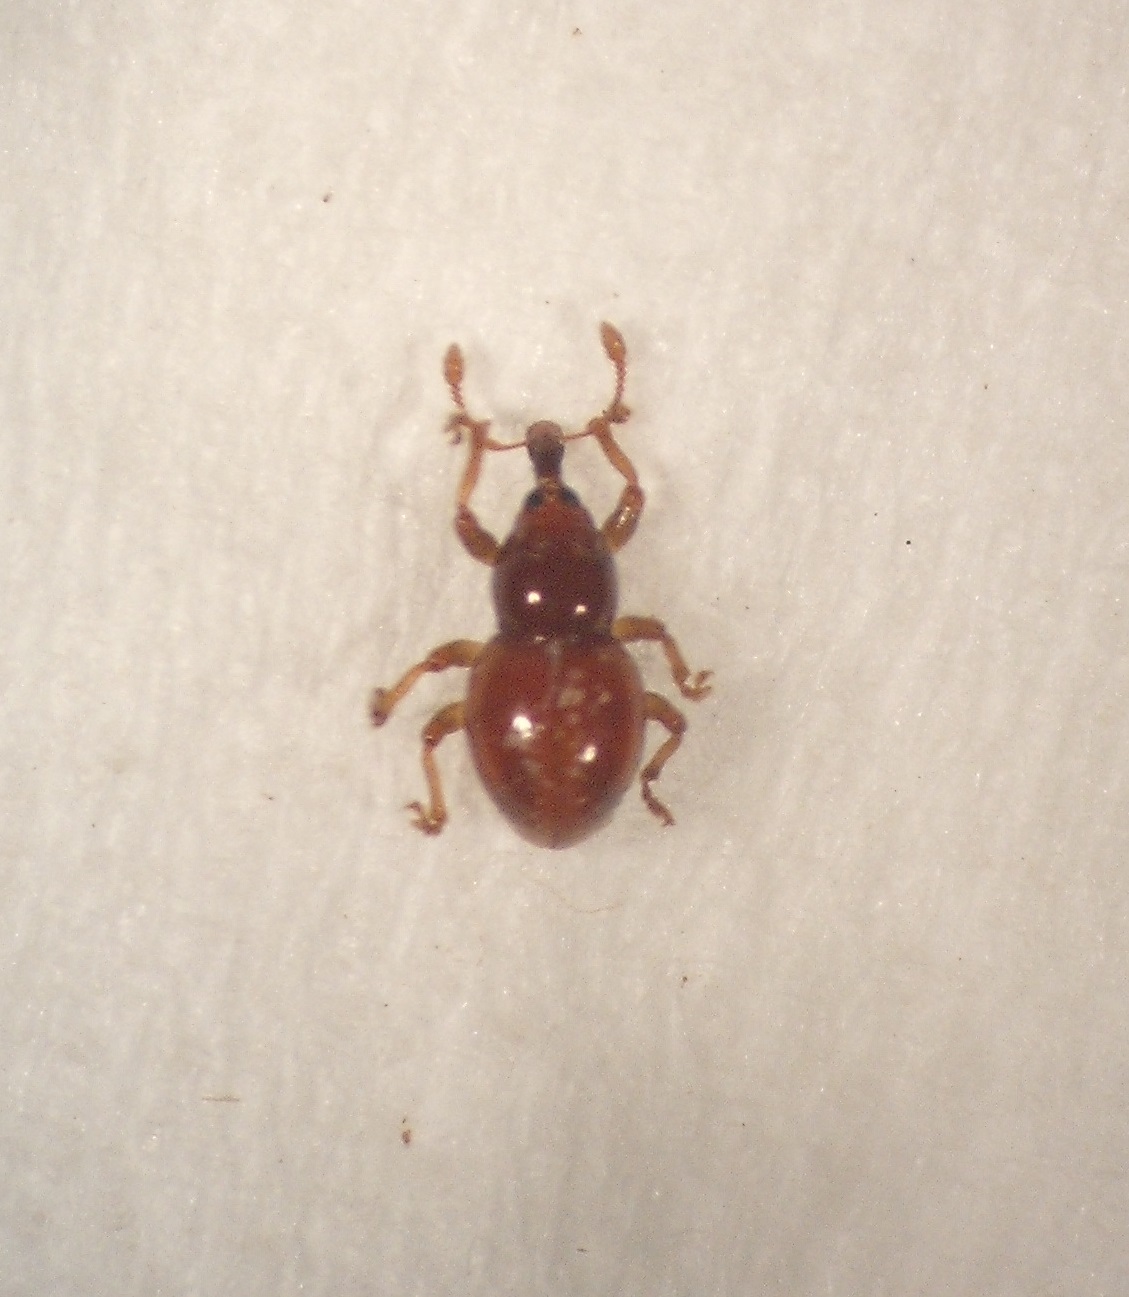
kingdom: Animalia
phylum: Arthropoda
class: Insecta
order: Coleoptera
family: Brachyceridae
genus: Stilbopsis
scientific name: Stilbopsis politus
